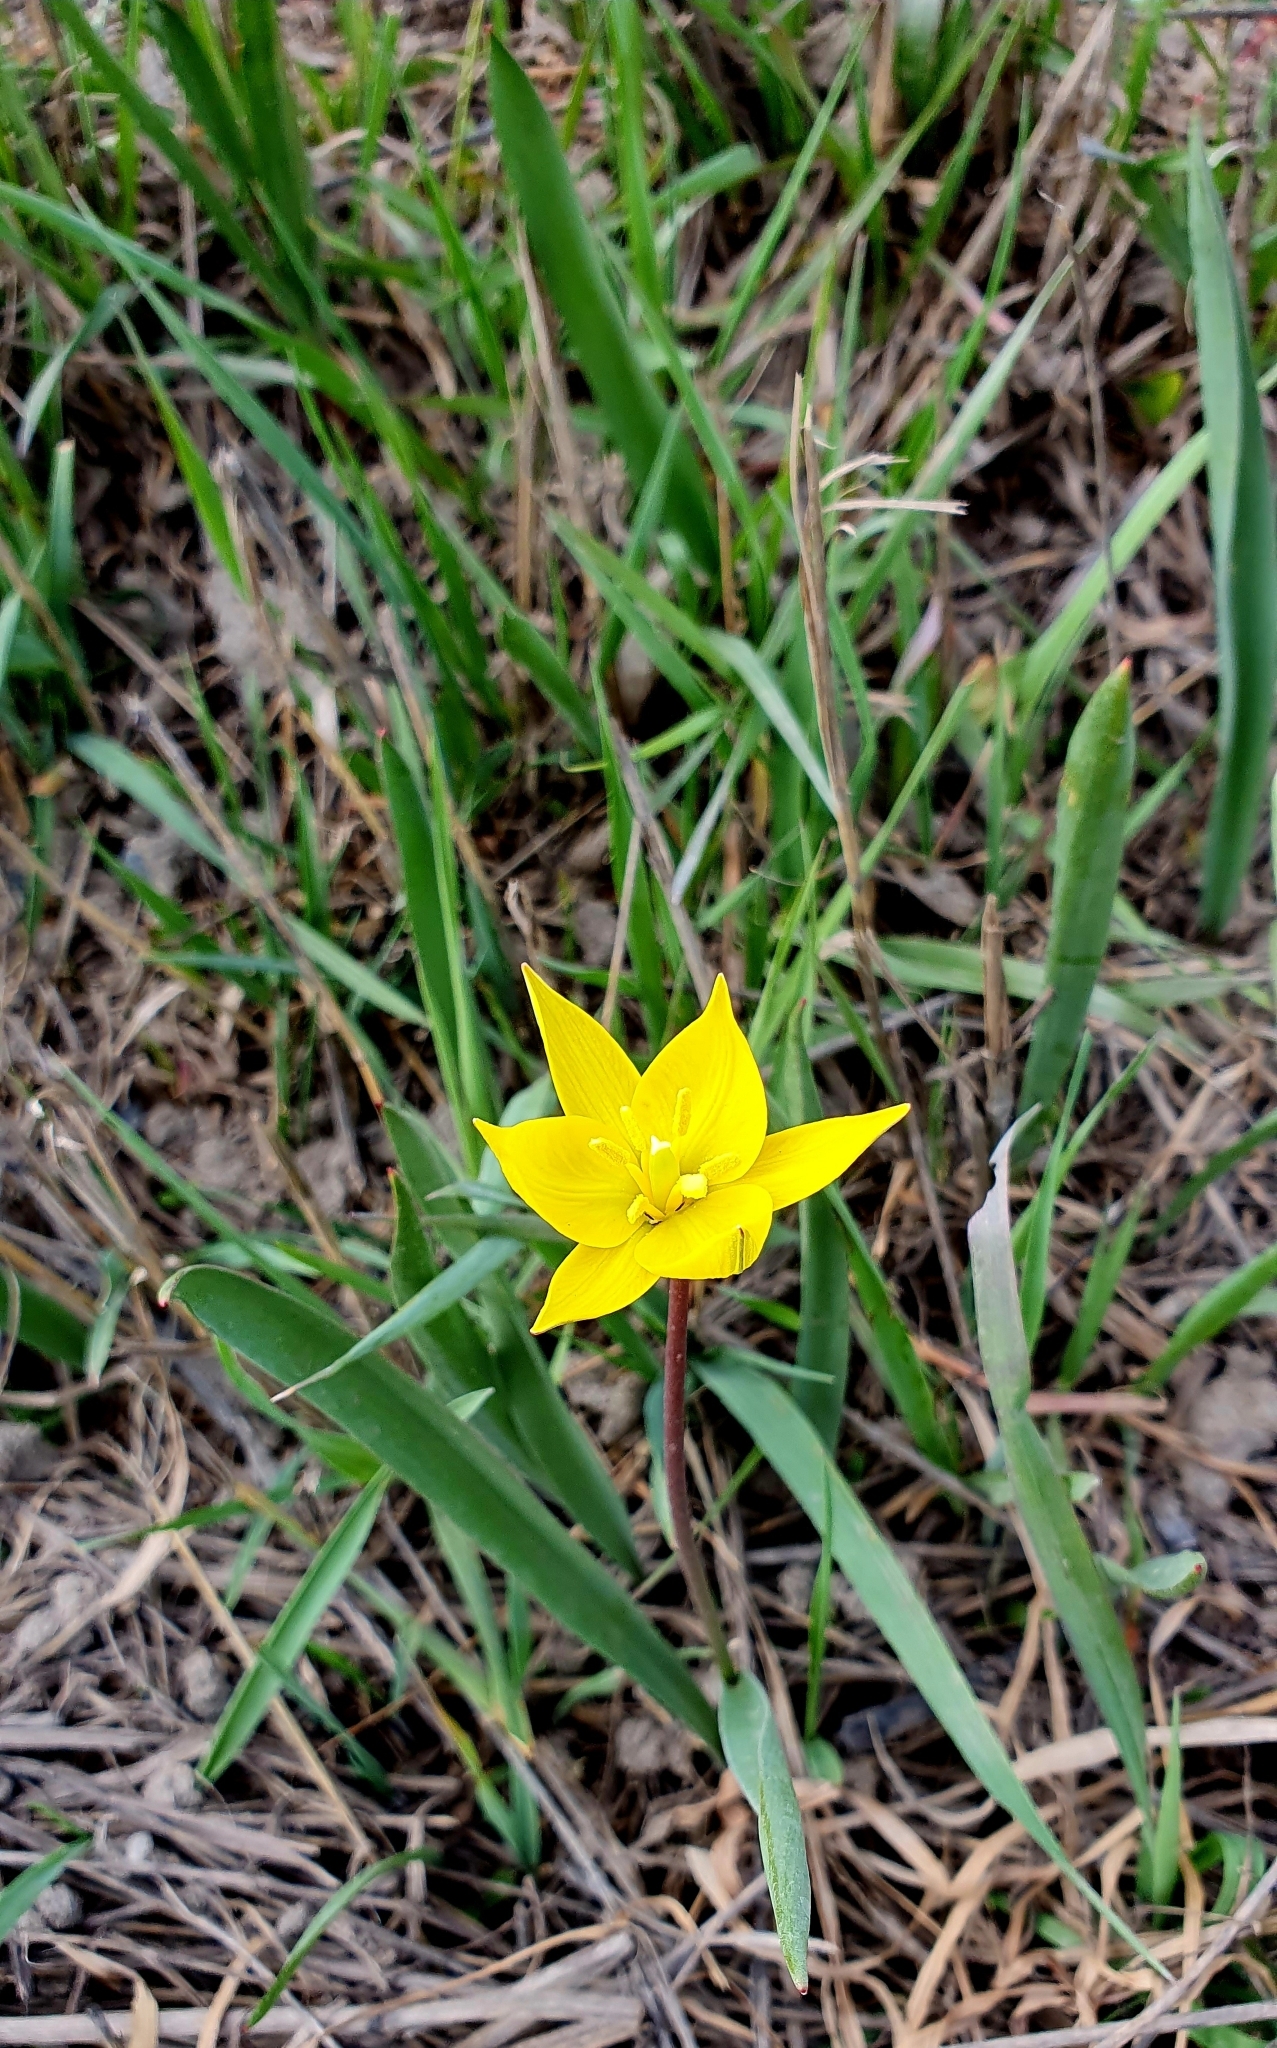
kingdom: Plantae
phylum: Tracheophyta
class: Liliopsida
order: Liliales
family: Liliaceae
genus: Tulipa
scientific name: Tulipa sylvestris
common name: Wild tulip
